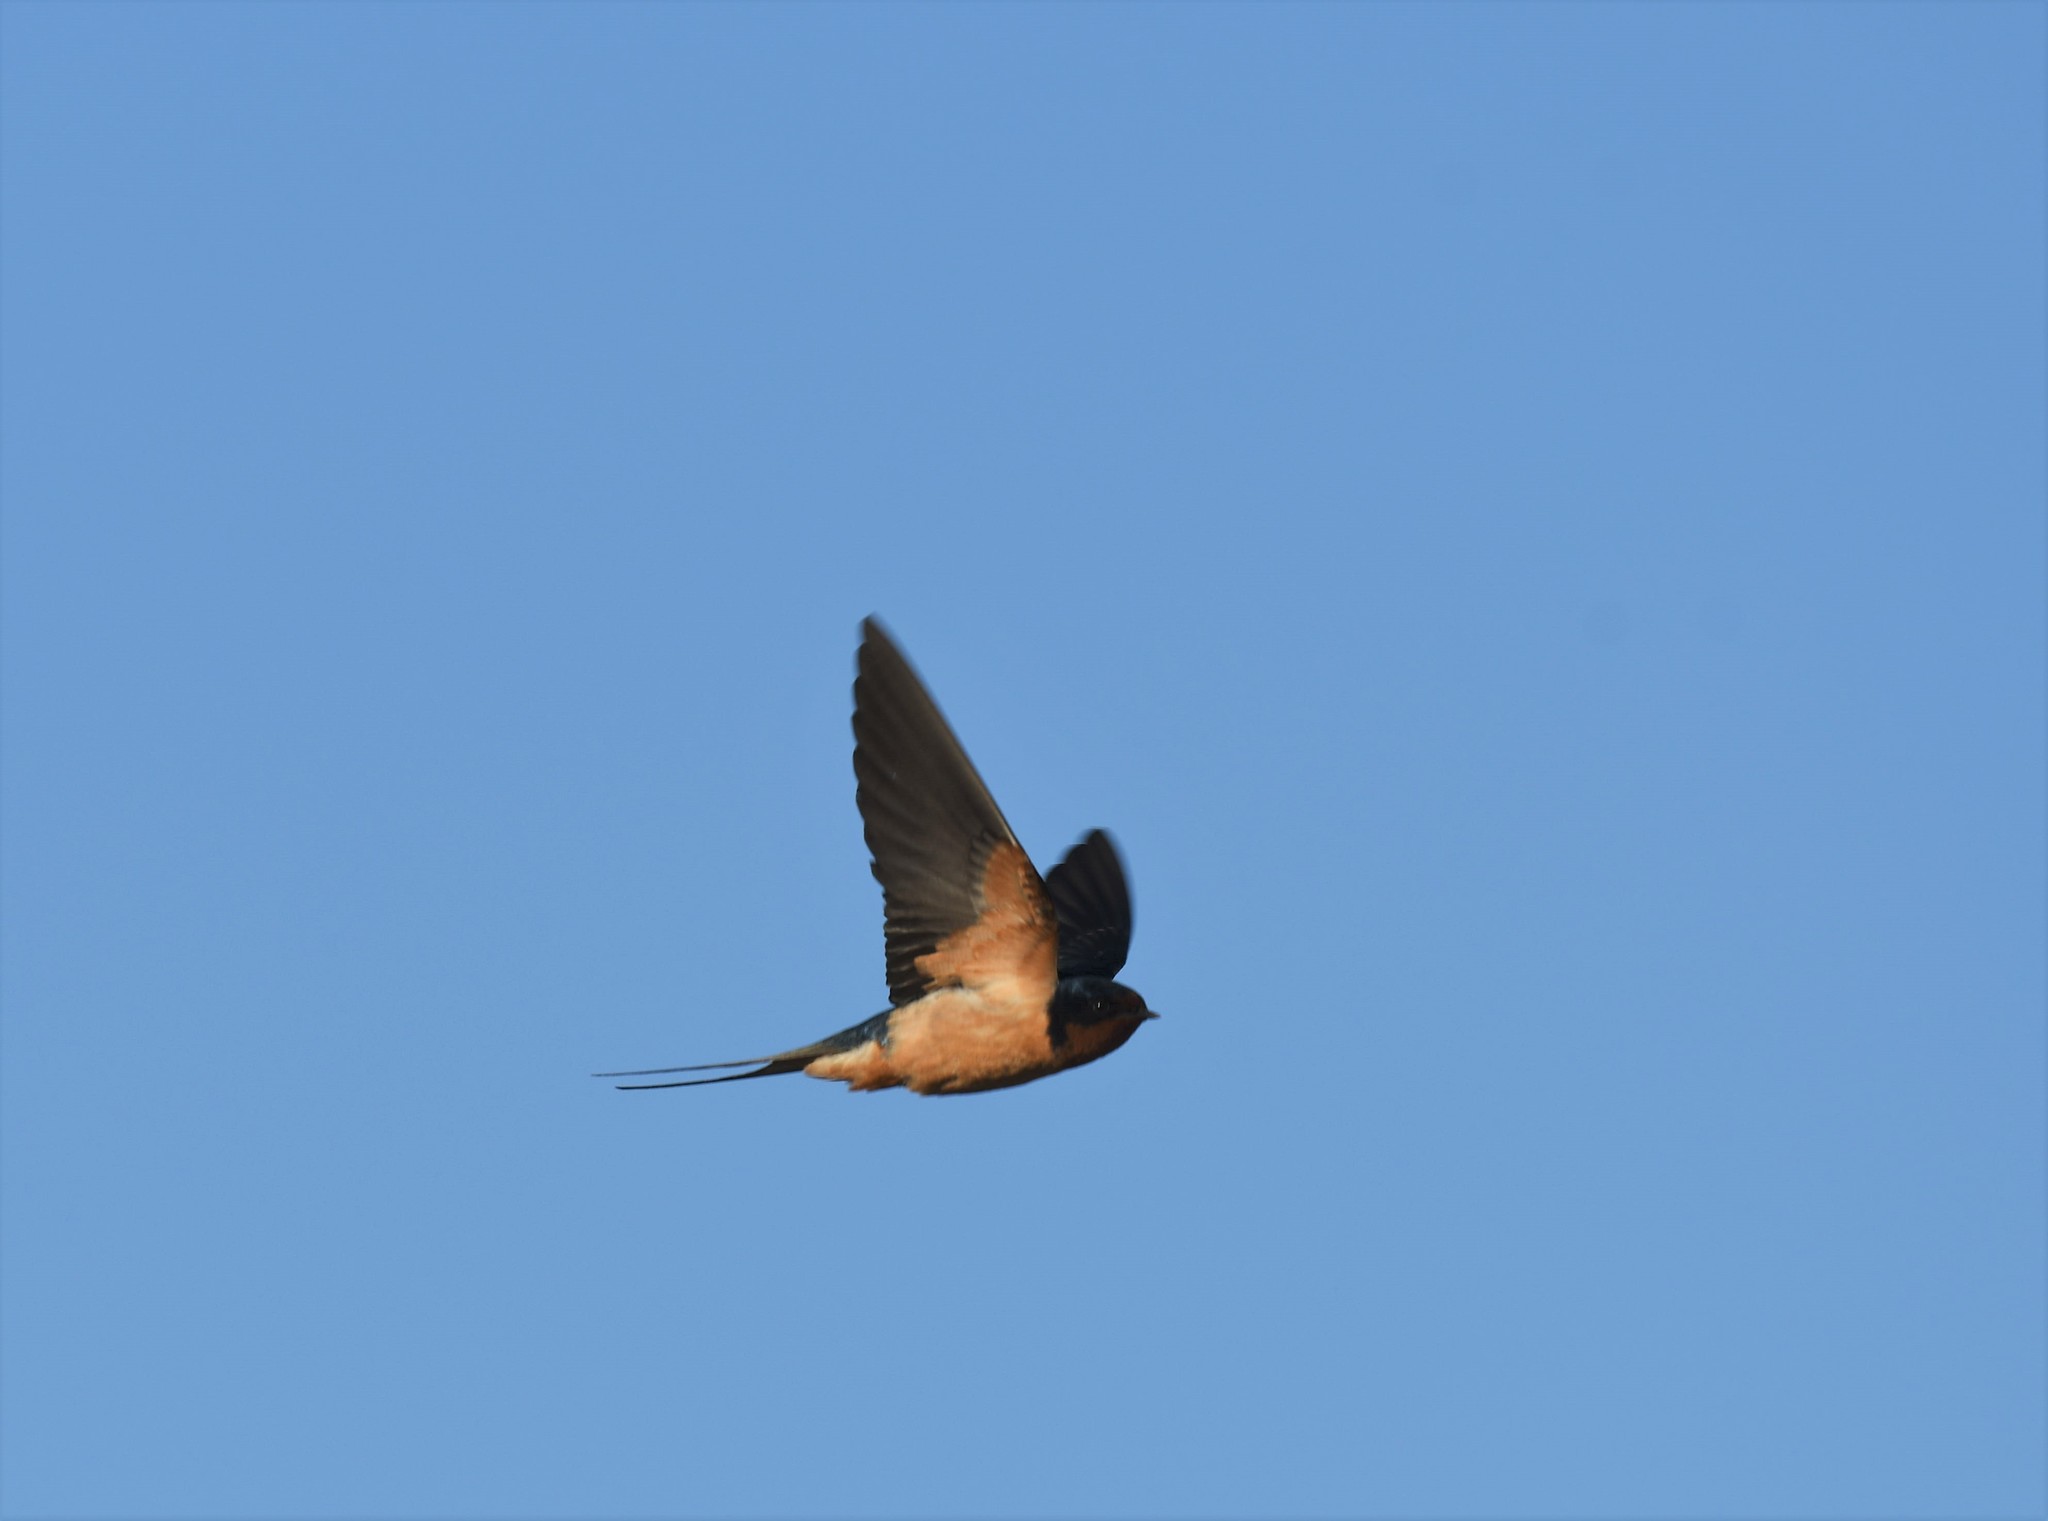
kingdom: Animalia
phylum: Chordata
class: Aves
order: Passeriformes
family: Hirundinidae
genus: Hirundo
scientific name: Hirundo rustica
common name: Barn swallow
